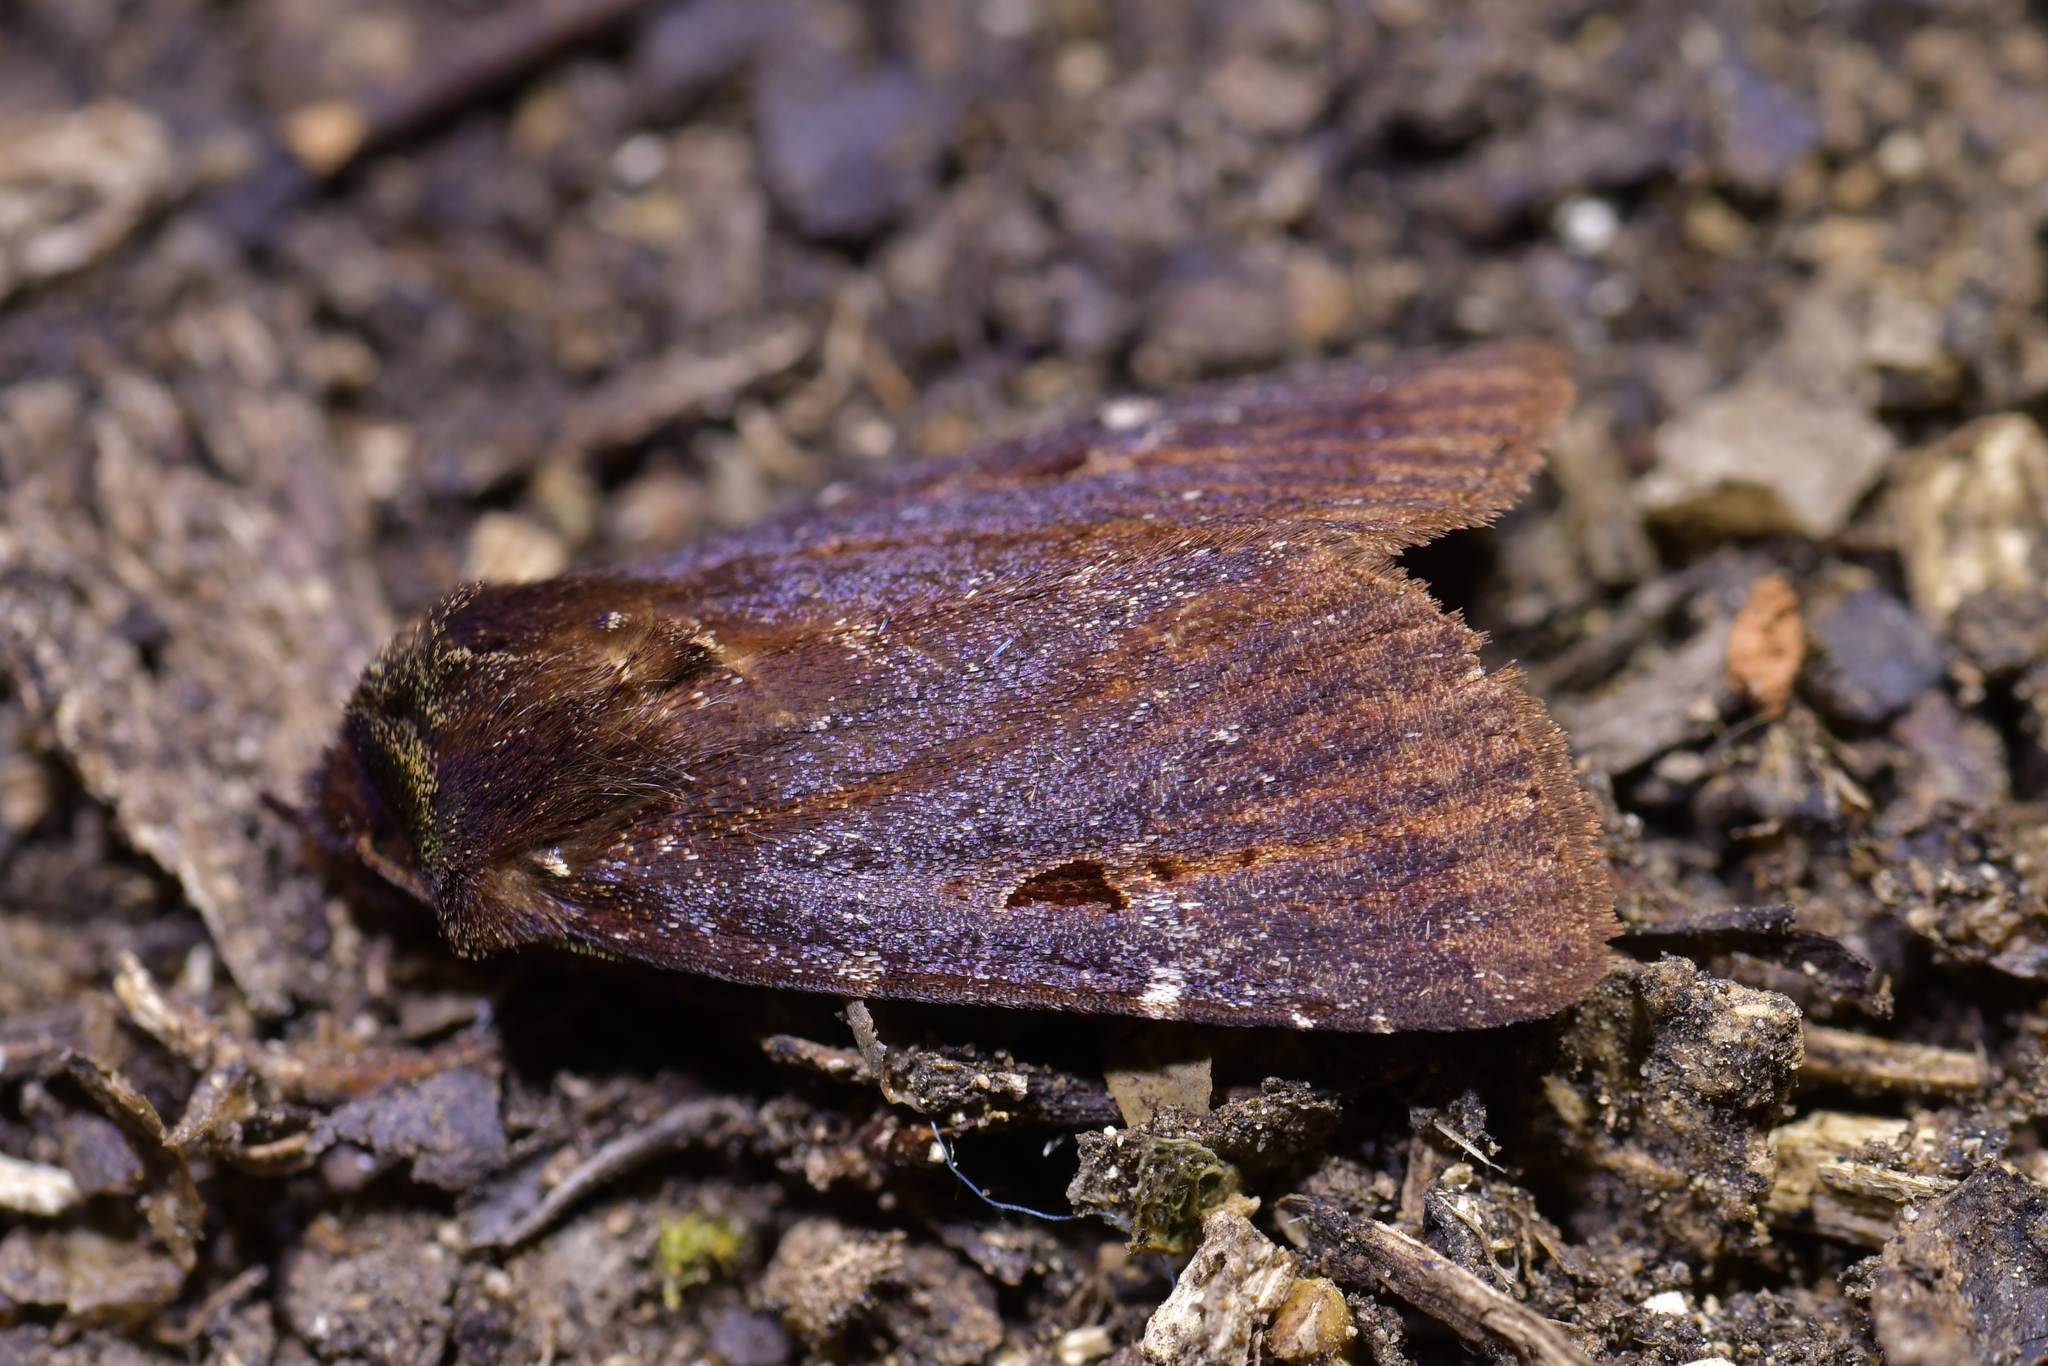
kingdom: Animalia
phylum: Arthropoda
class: Insecta
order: Lepidoptera
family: Noctuidae
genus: Austramathes
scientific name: Austramathes purpurea
